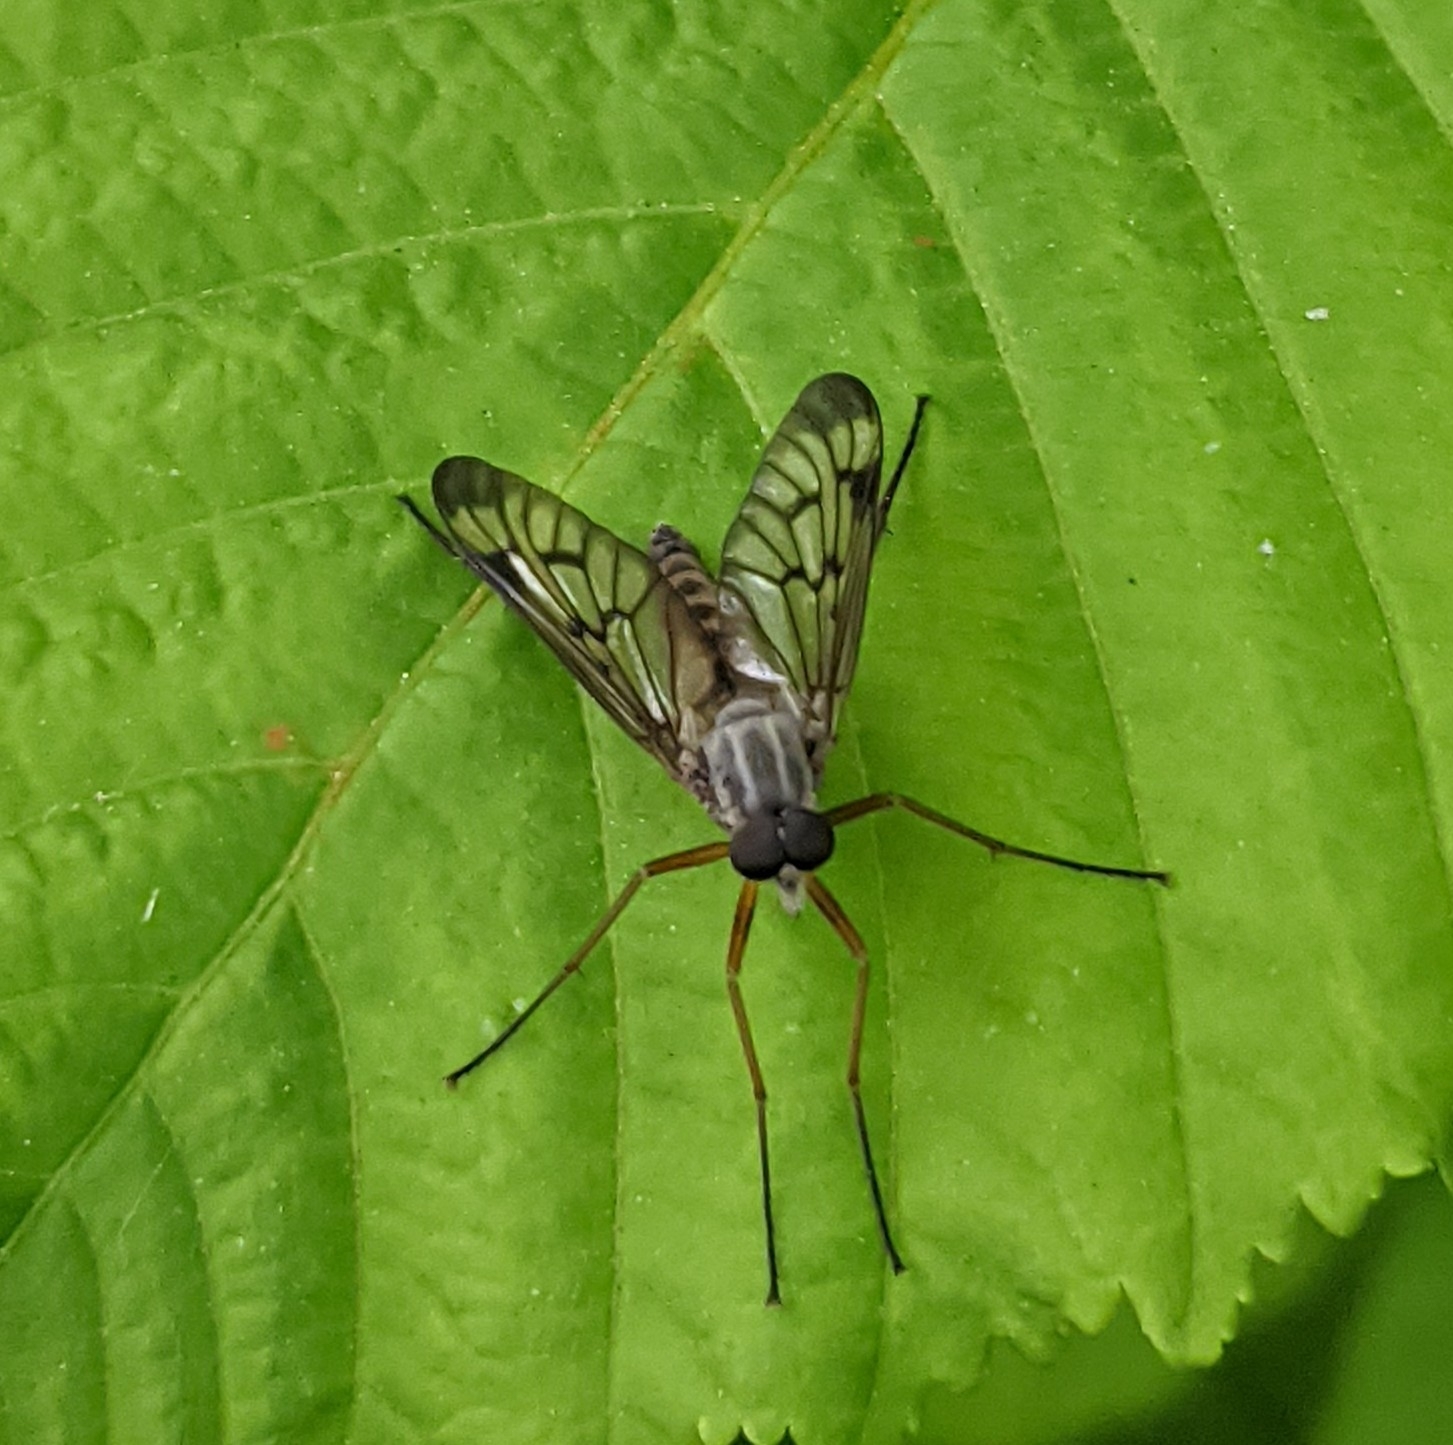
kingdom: Animalia
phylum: Arthropoda
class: Insecta
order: Diptera
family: Rhagionidae
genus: Rhagio
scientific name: Rhagio scolopacea
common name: Downlooker snipefly
